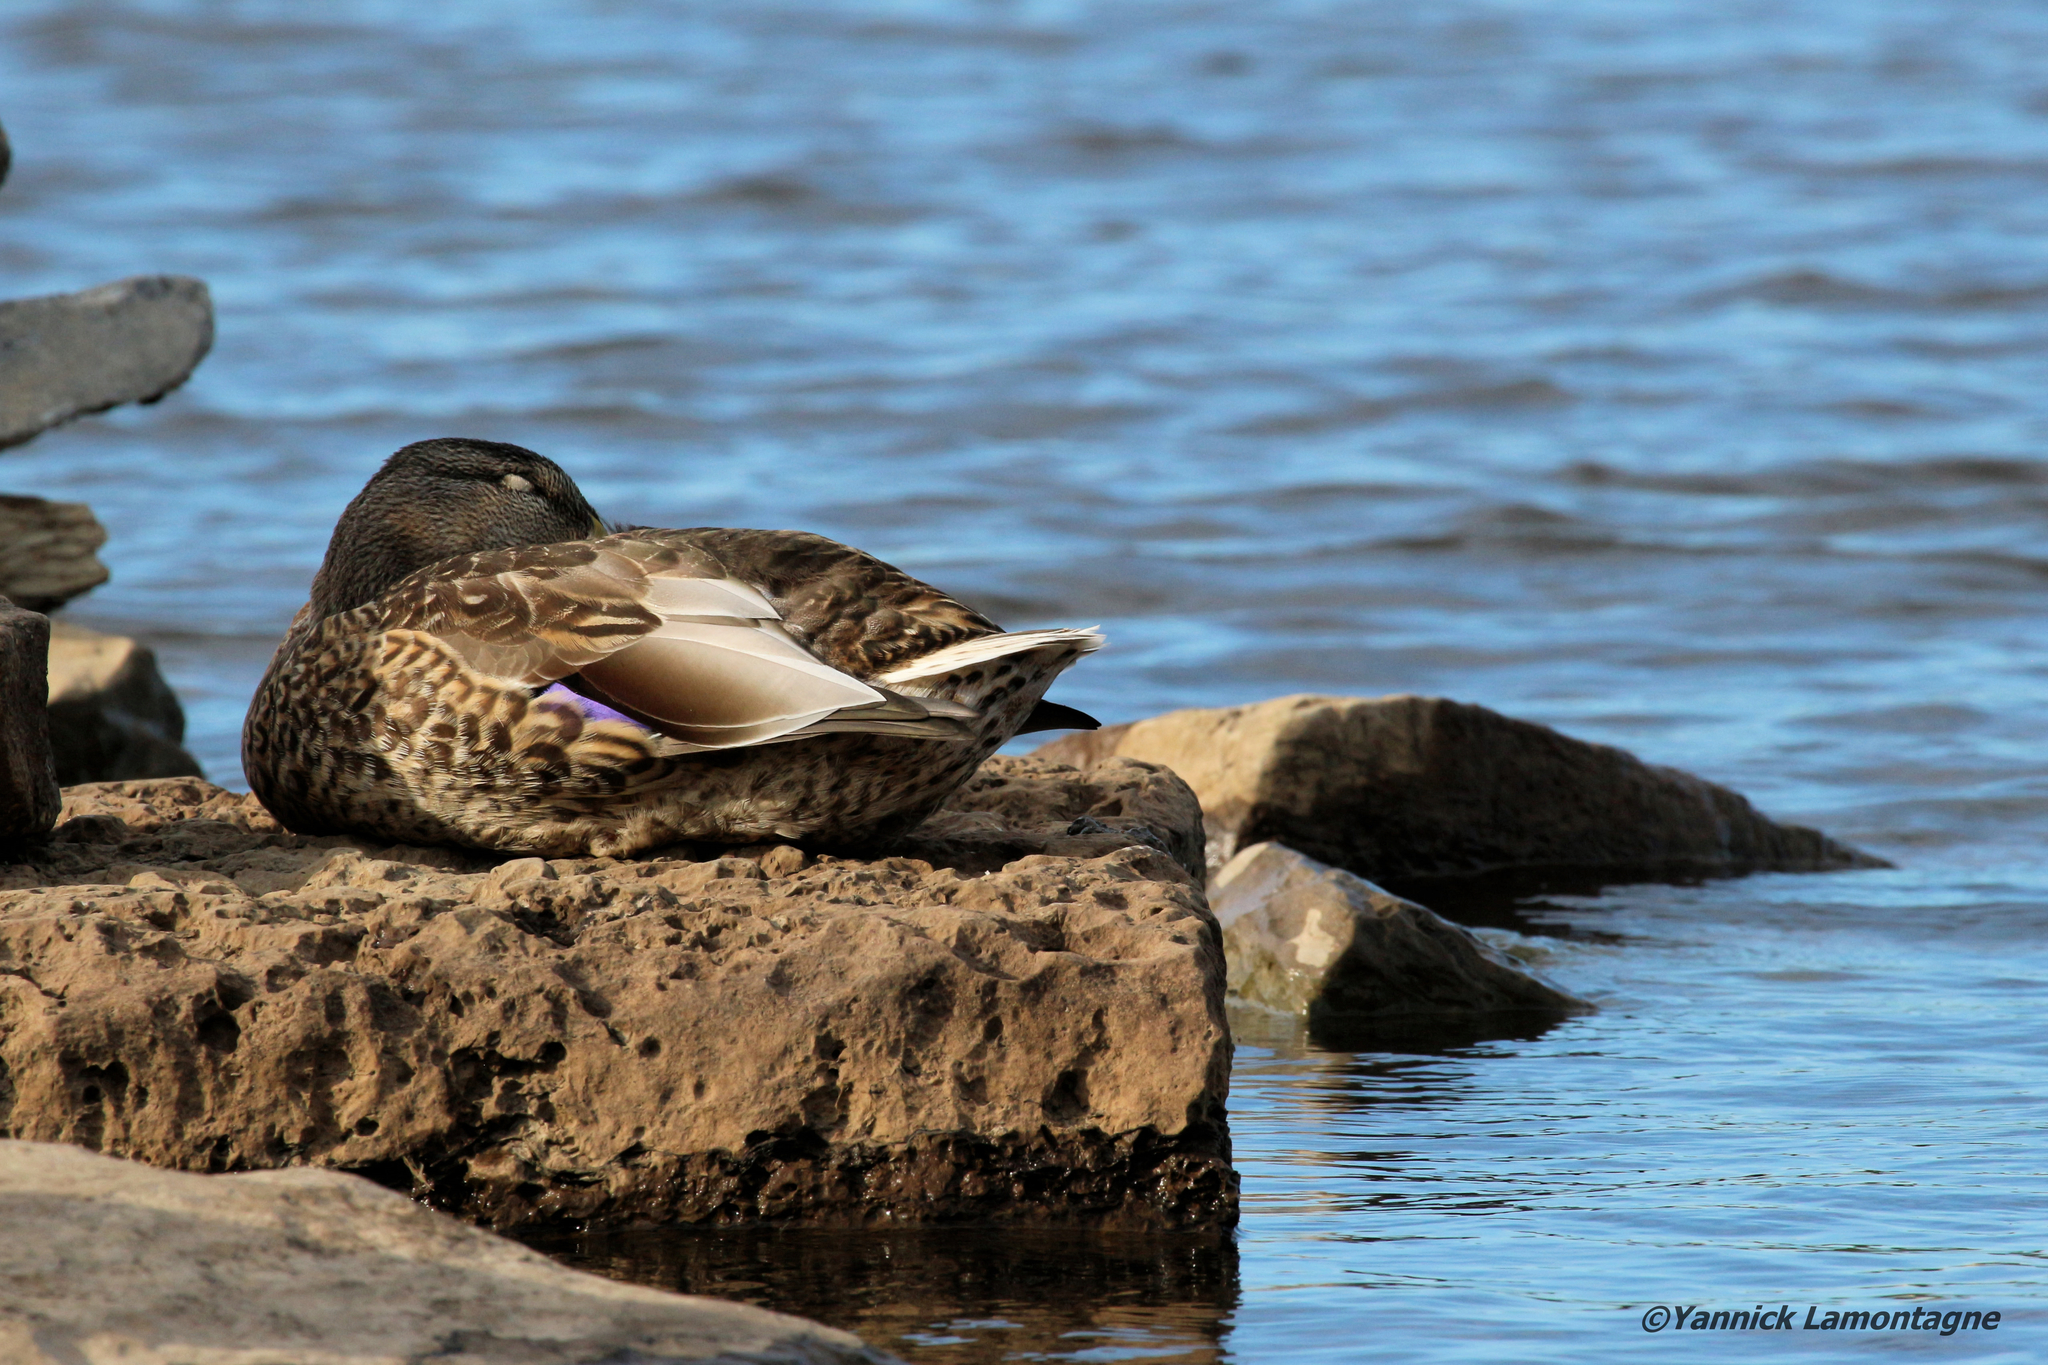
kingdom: Animalia
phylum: Chordata
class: Aves
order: Anseriformes
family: Anatidae
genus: Anas
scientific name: Anas platyrhynchos
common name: Mallard
